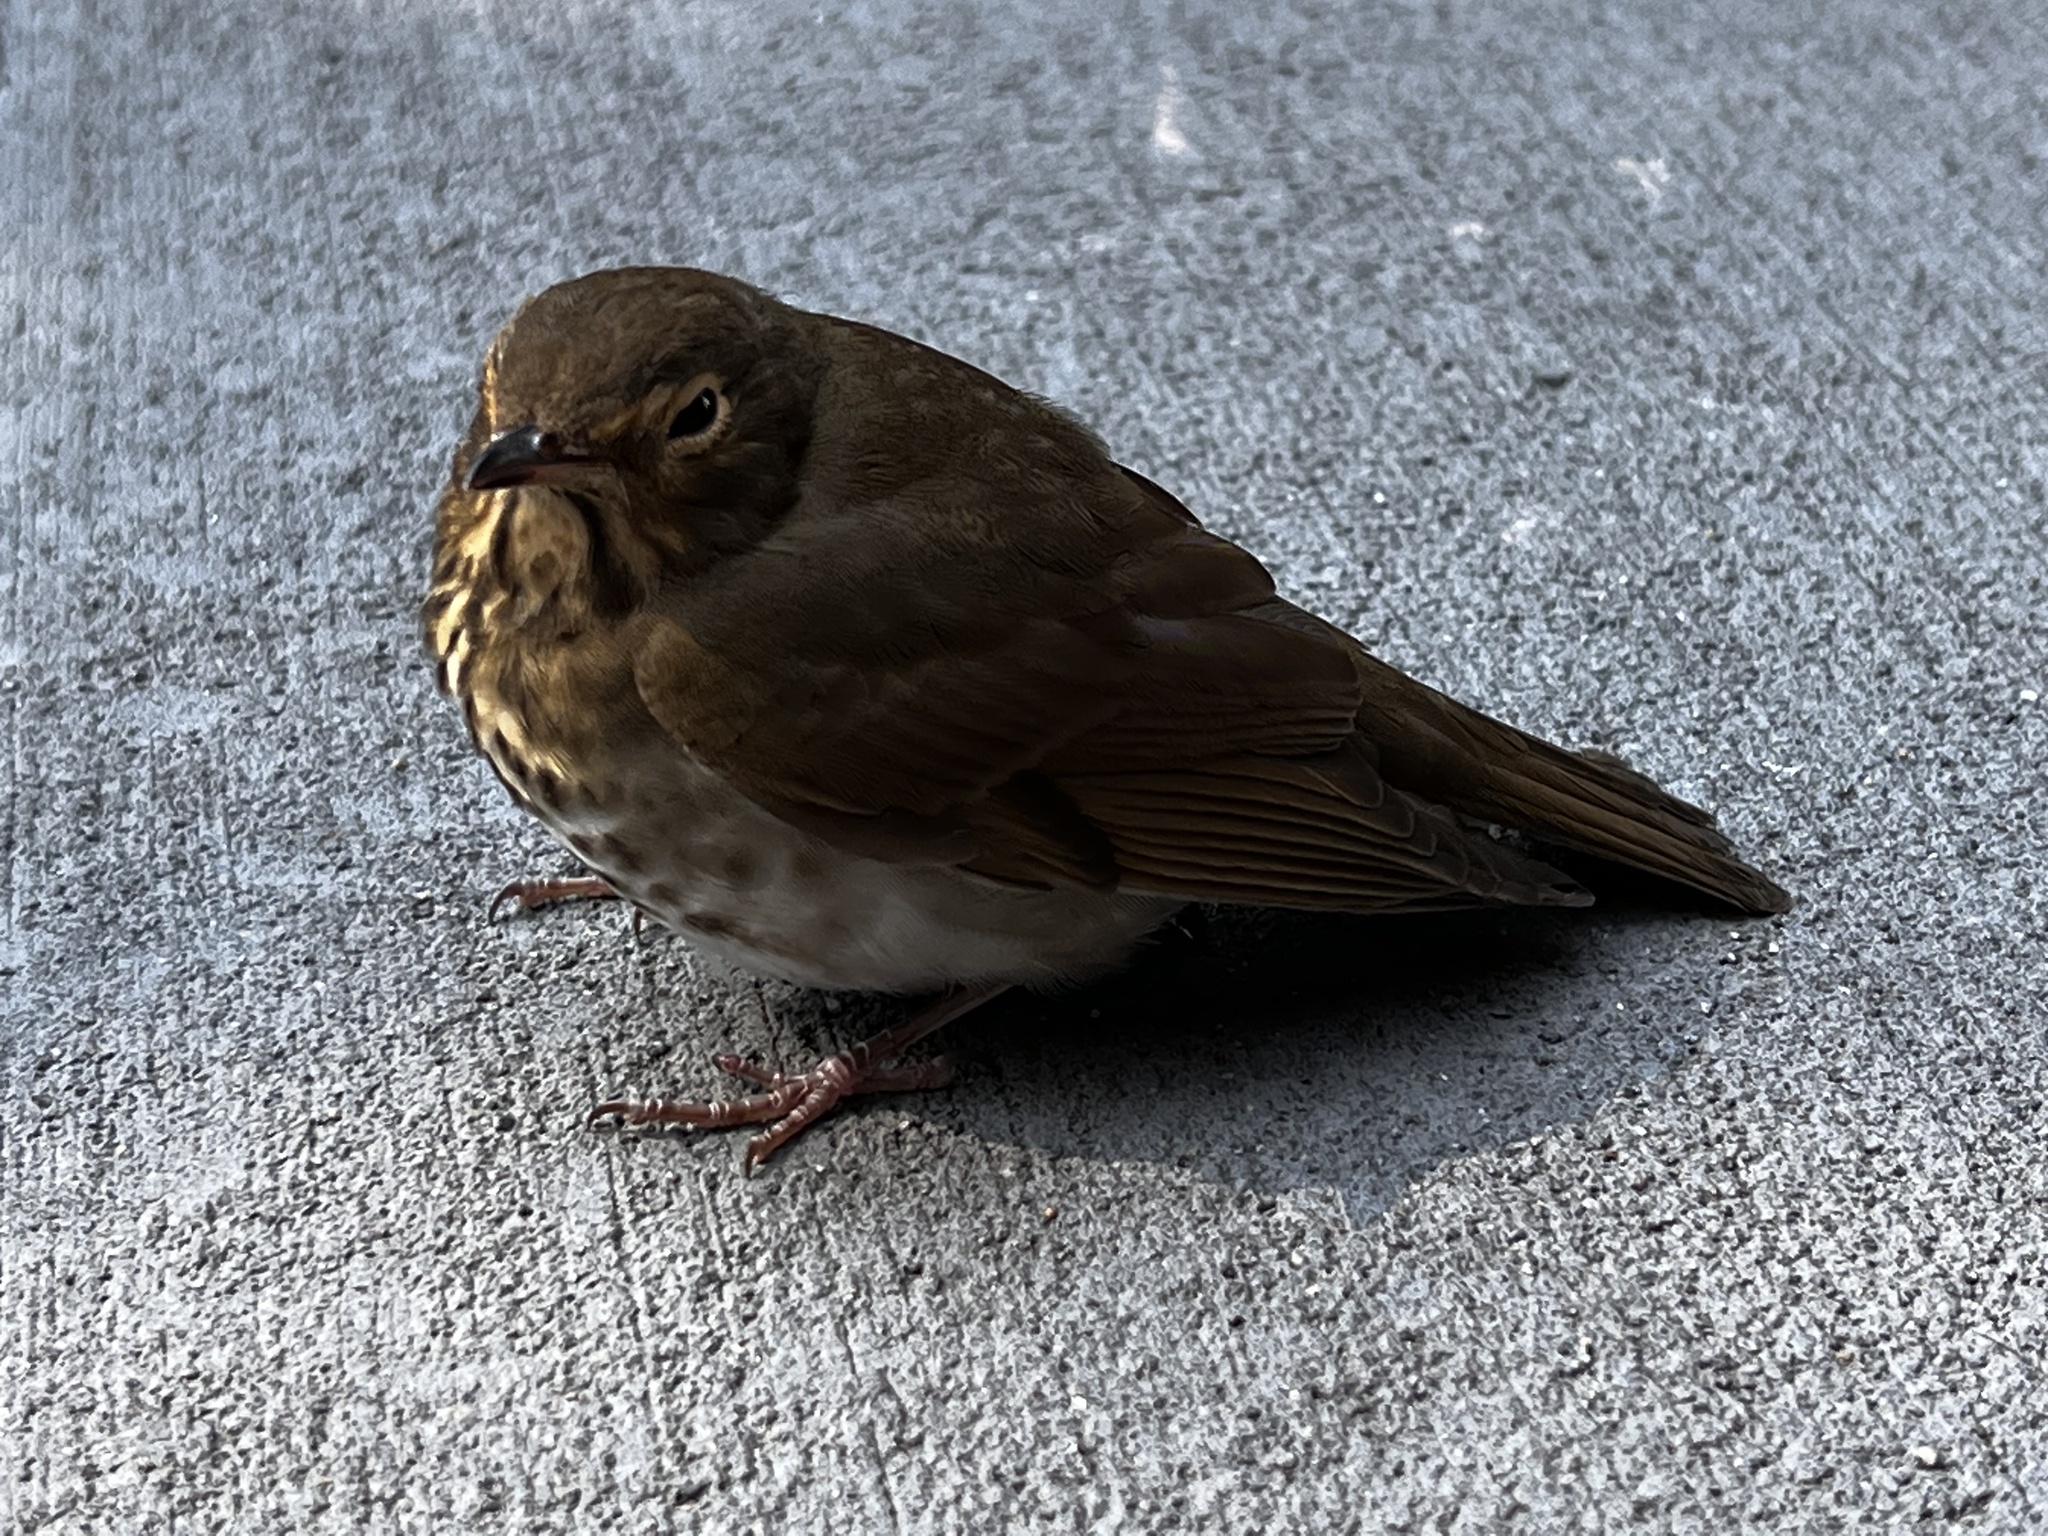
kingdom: Animalia
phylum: Chordata
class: Aves
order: Passeriformes
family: Turdidae
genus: Catharus
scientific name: Catharus ustulatus
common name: Swainson's thrush
